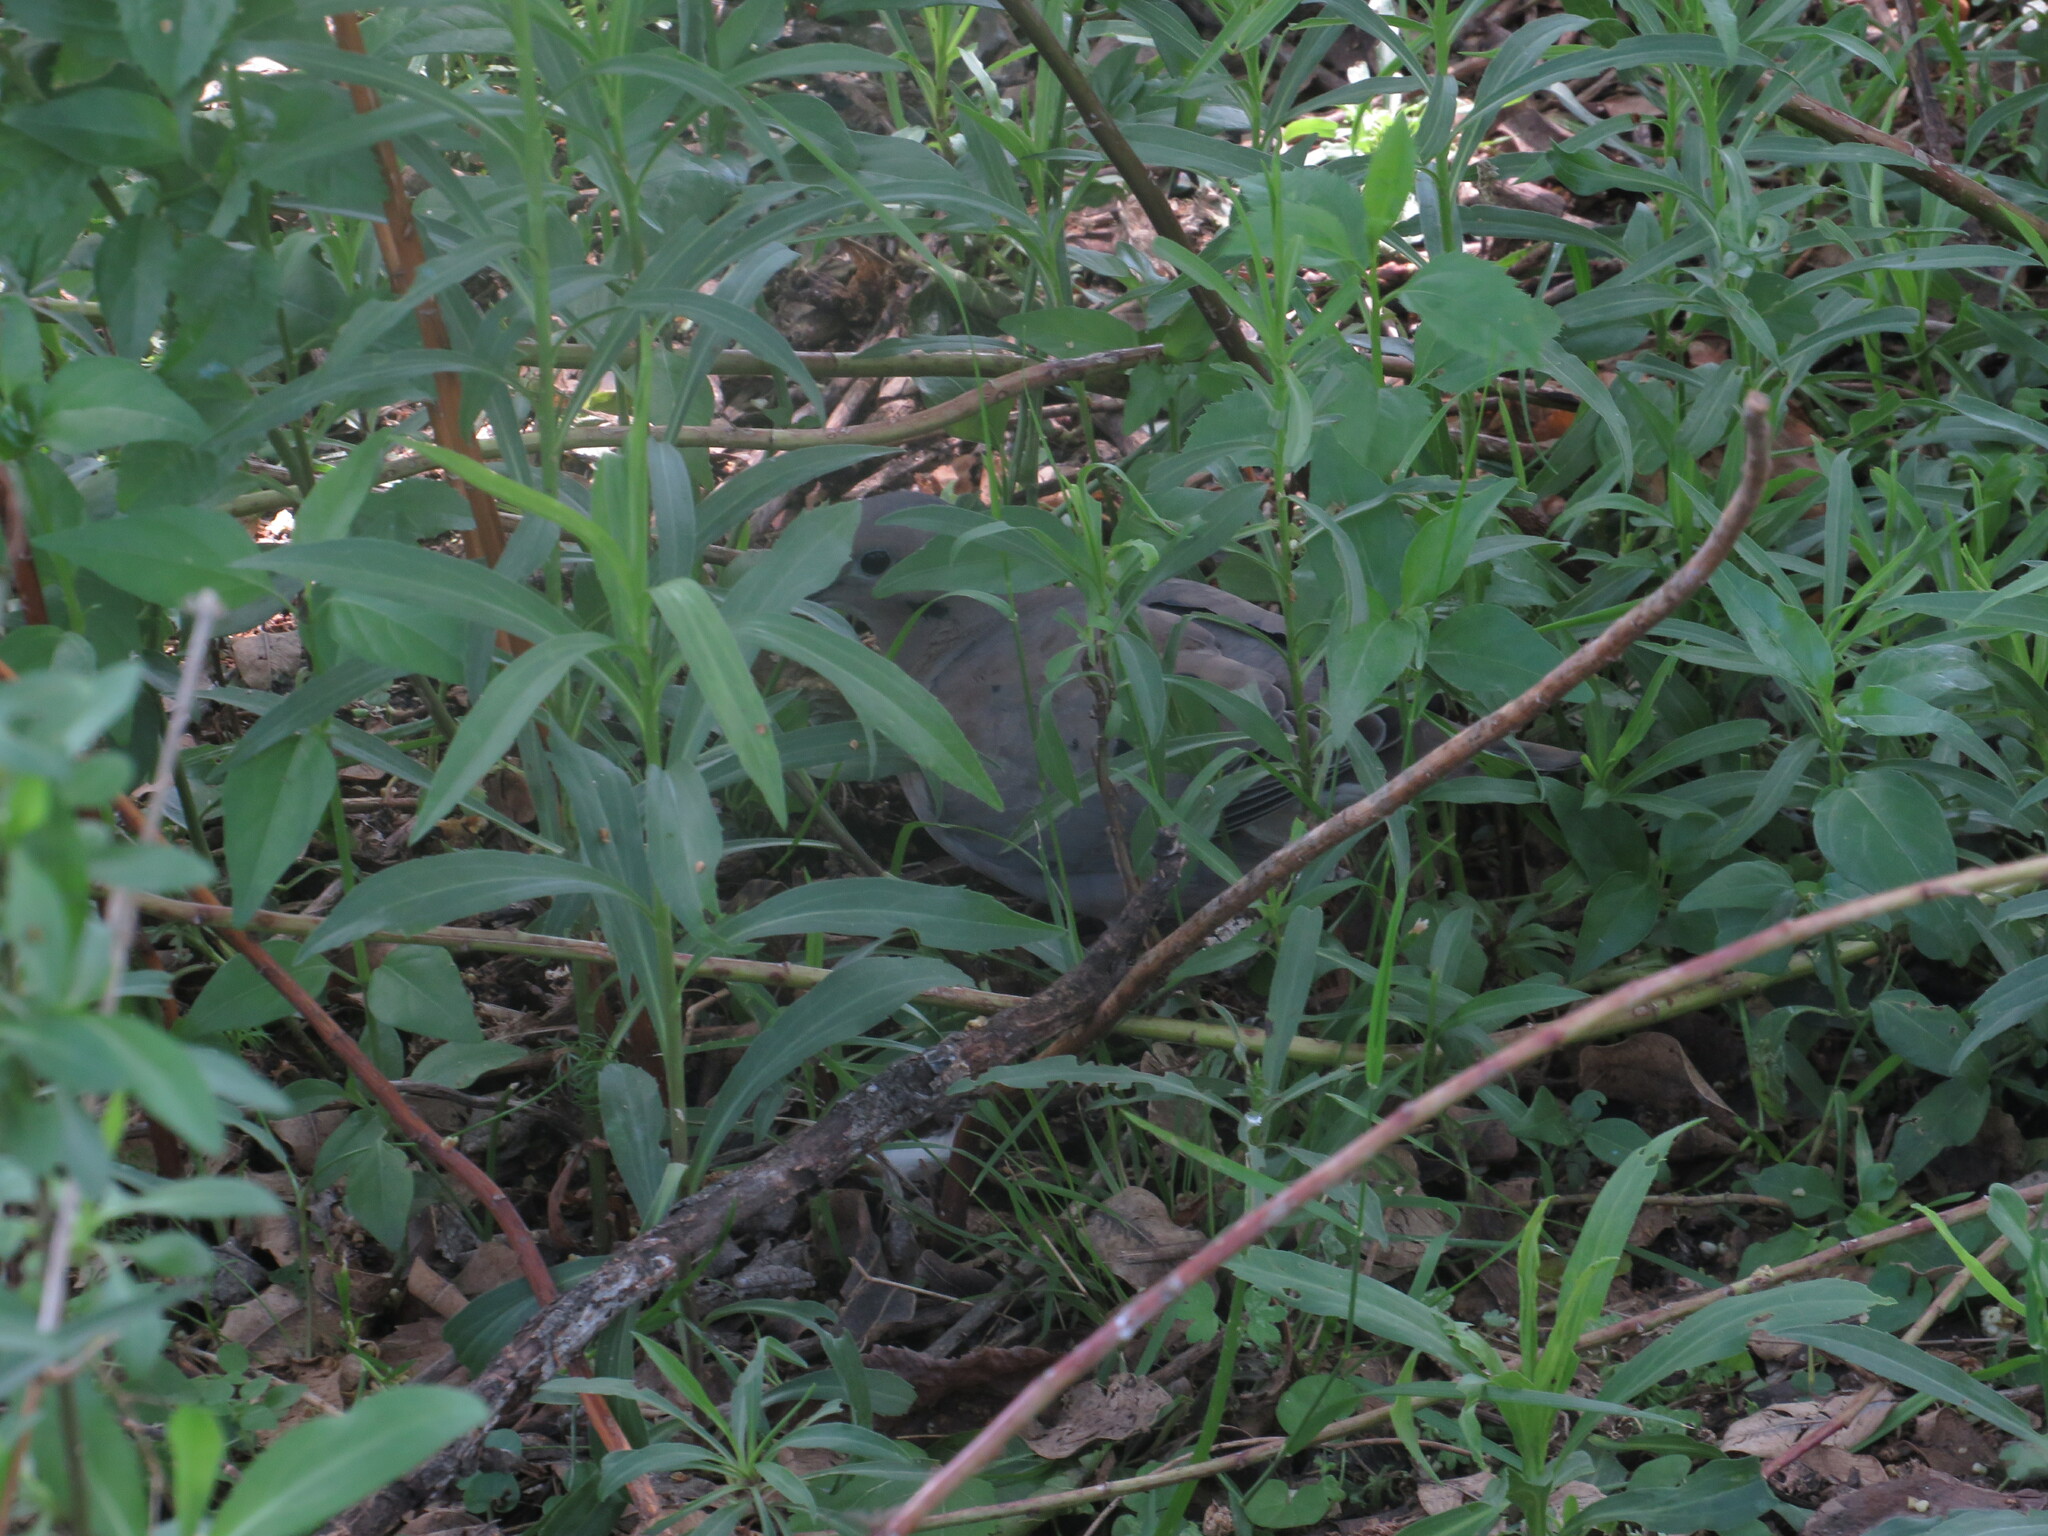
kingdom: Animalia
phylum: Chordata
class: Aves
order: Columbiformes
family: Columbidae
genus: Zenaida
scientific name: Zenaida auriculata
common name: Eared dove
